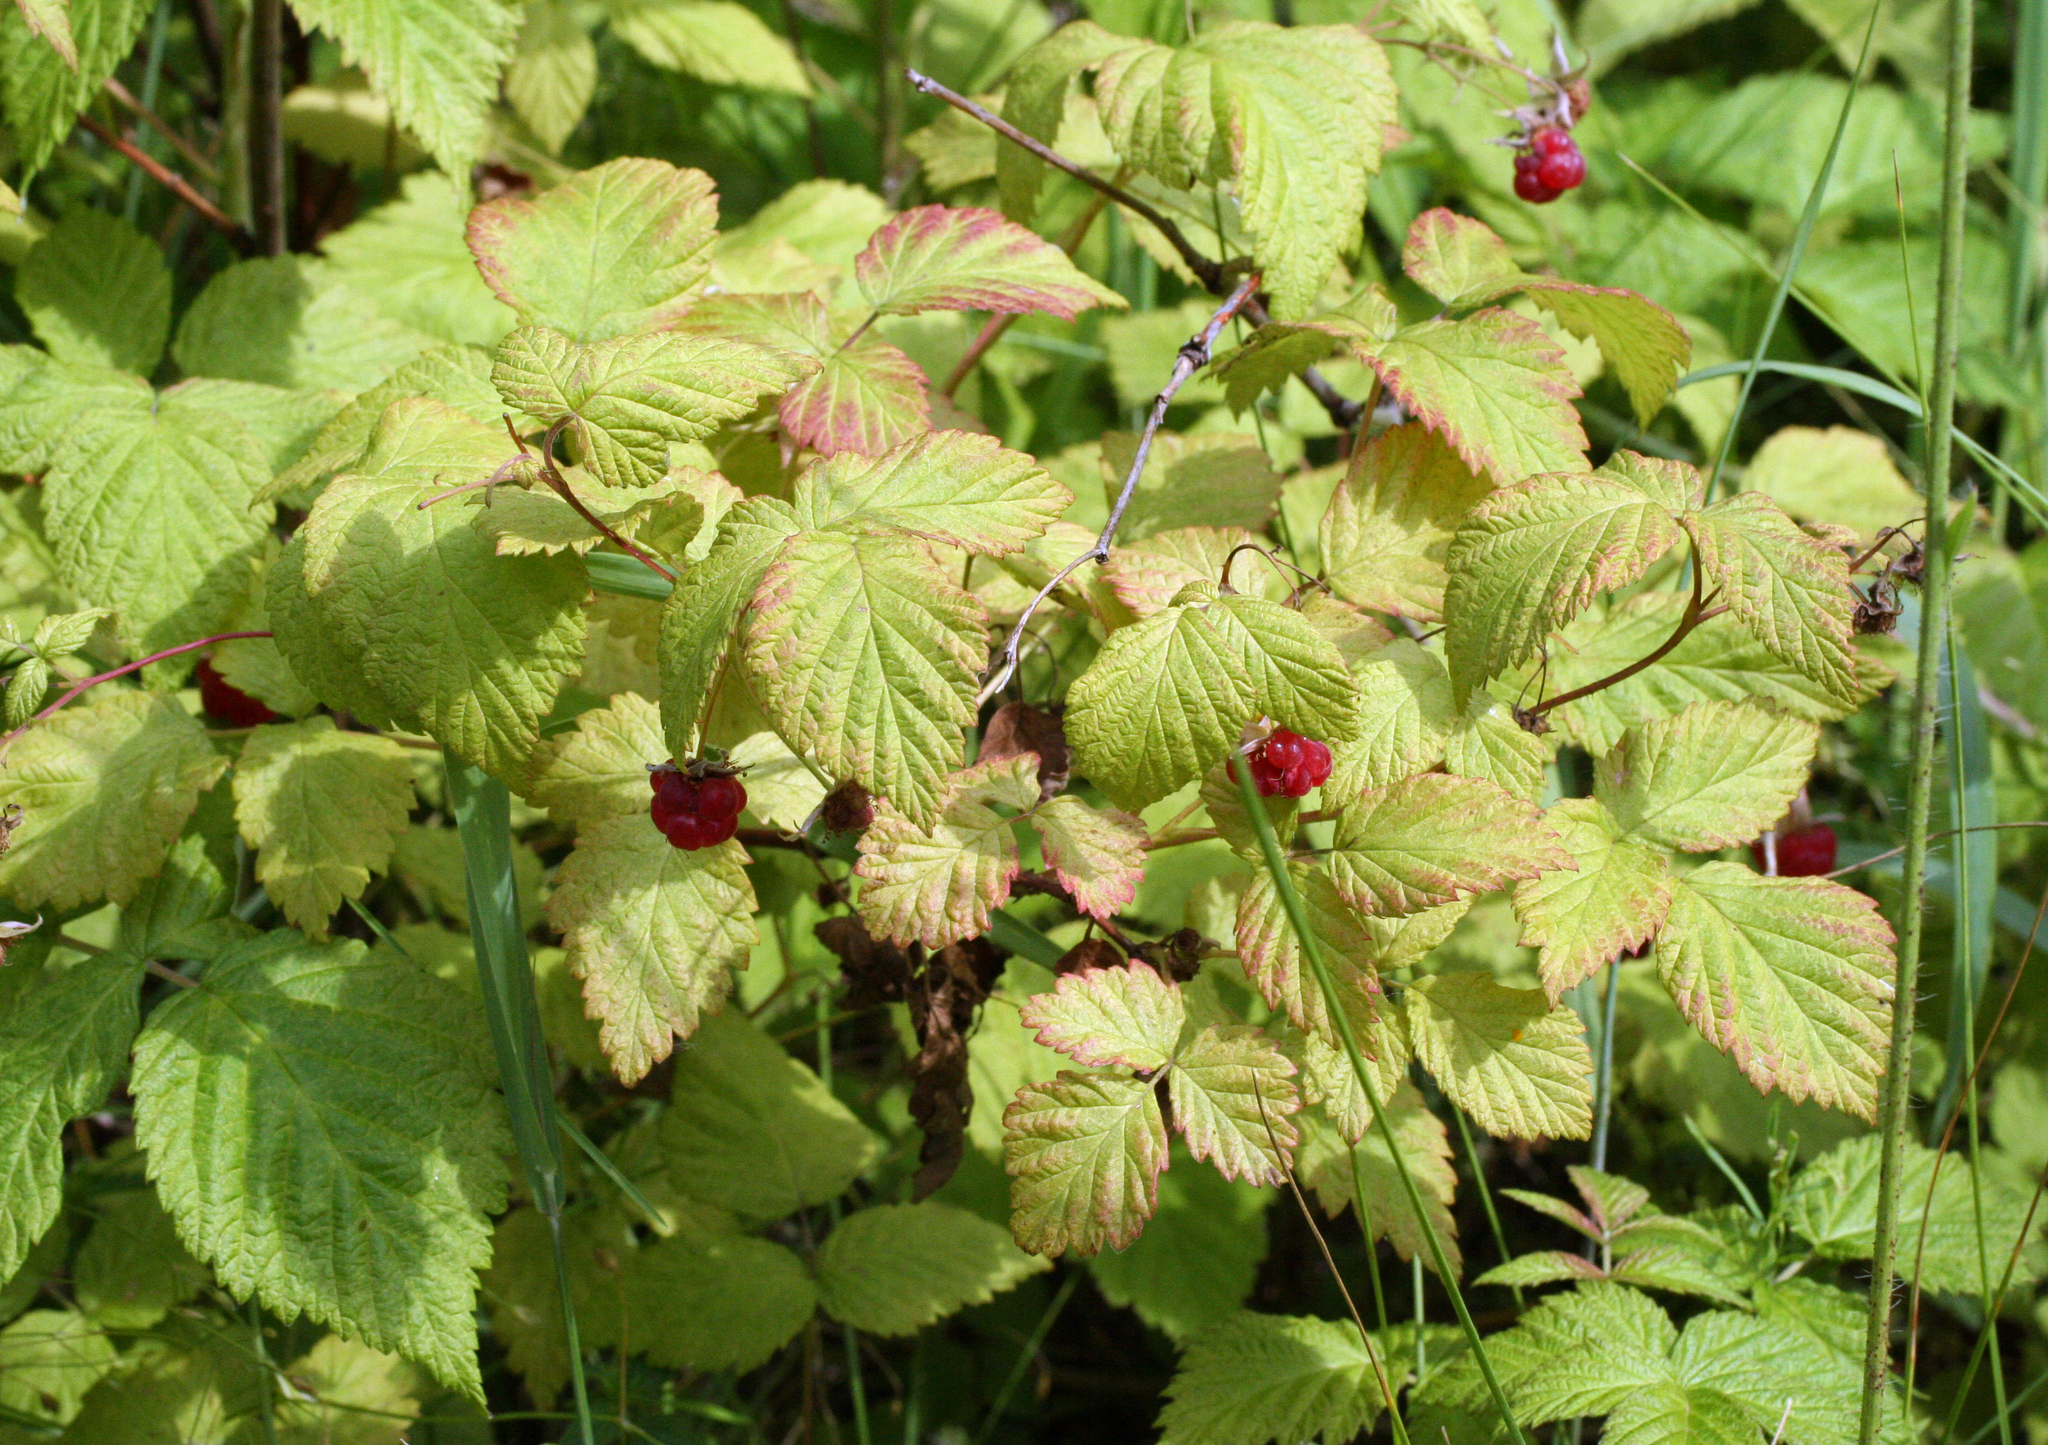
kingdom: Plantae
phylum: Tracheophyta
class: Magnoliopsida
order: Rosales
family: Rosaceae
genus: Rubus
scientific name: Rubus idaeus
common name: Raspberry
